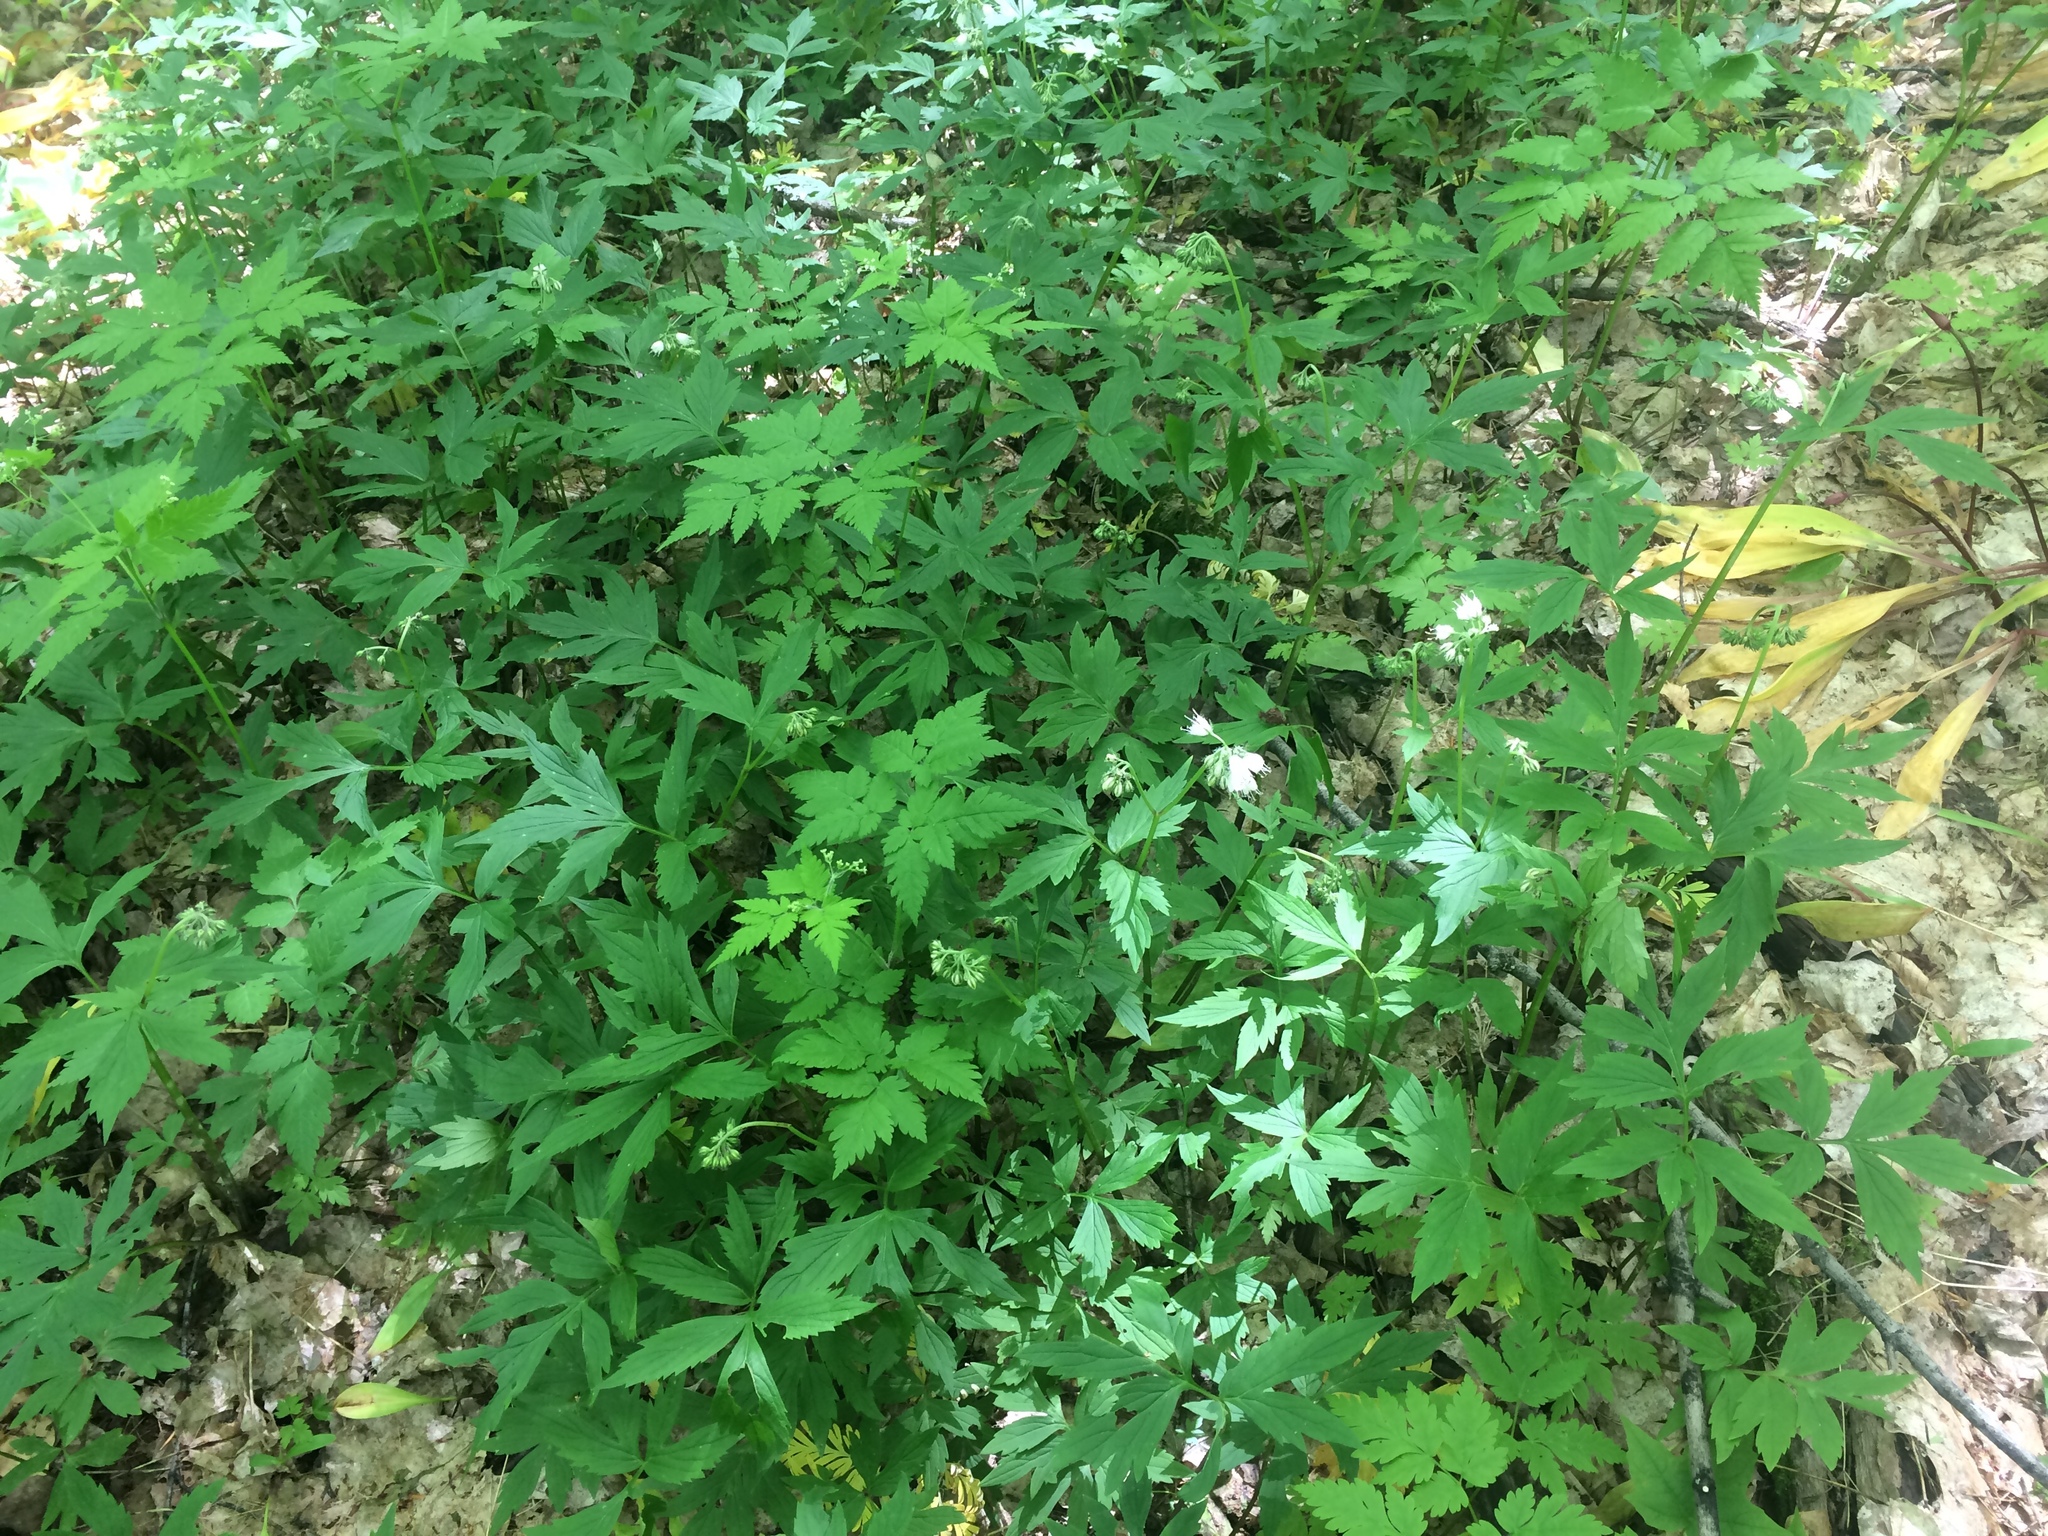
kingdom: Plantae
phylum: Tracheophyta
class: Magnoliopsida
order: Boraginales
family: Hydrophyllaceae
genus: Hydrophyllum
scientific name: Hydrophyllum virginianum
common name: Virginia waterleaf
